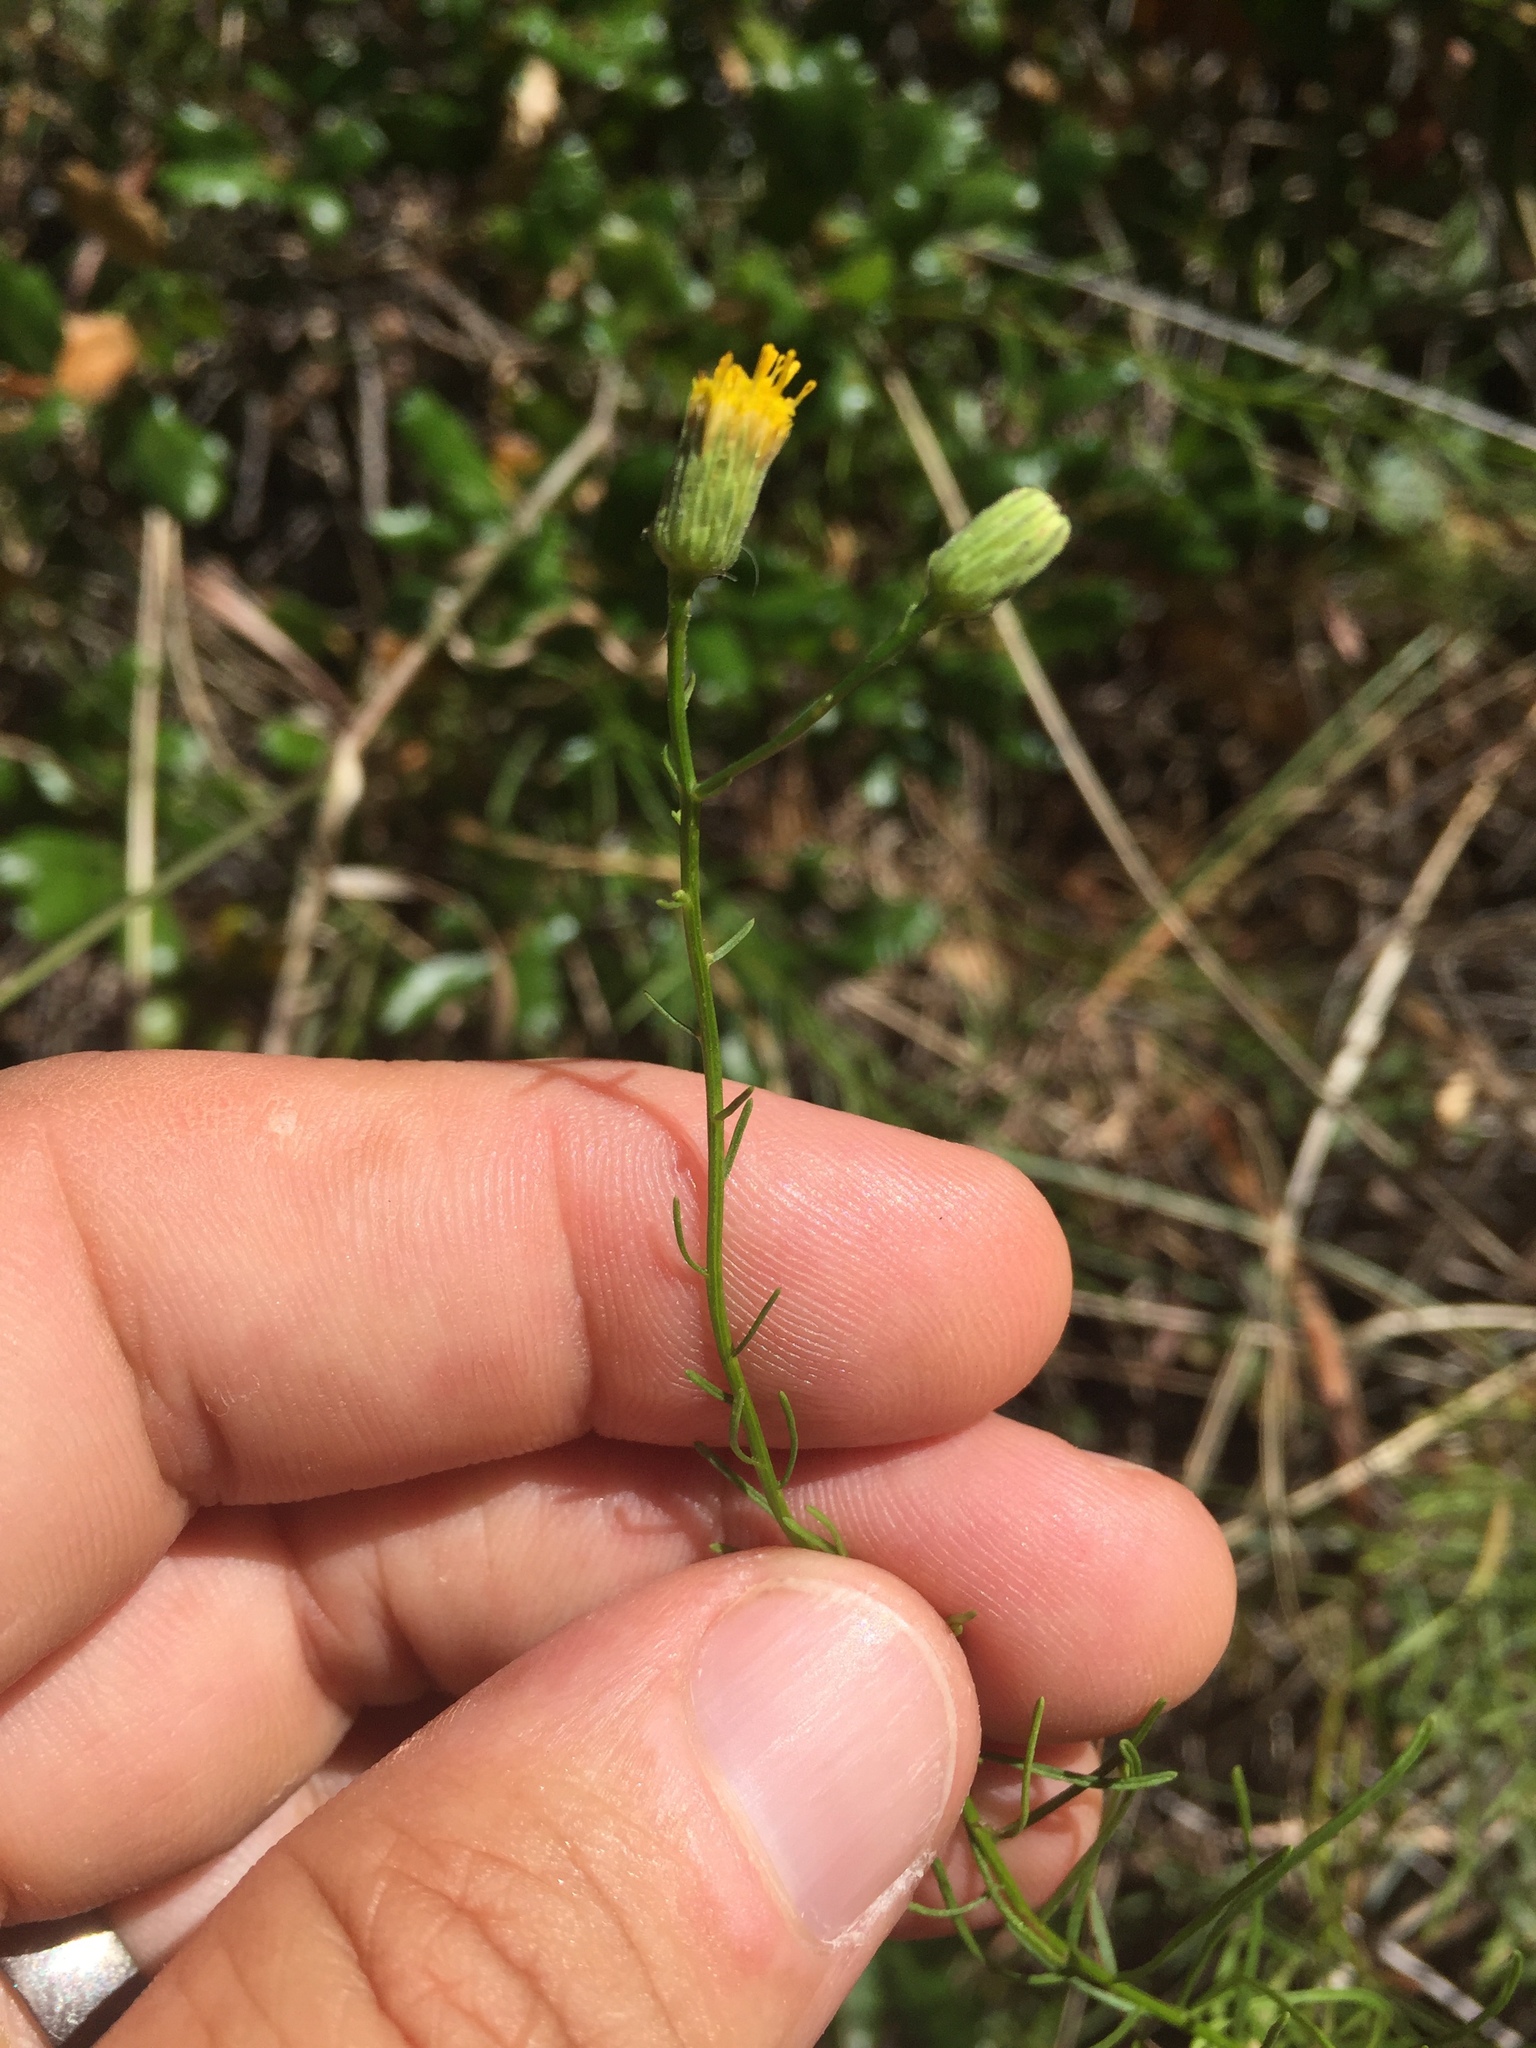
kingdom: Plantae
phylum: Tracheophyta
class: Magnoliopsida
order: Asterales
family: Asteraceae
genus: Erigeron
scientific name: Erigeron greenei
